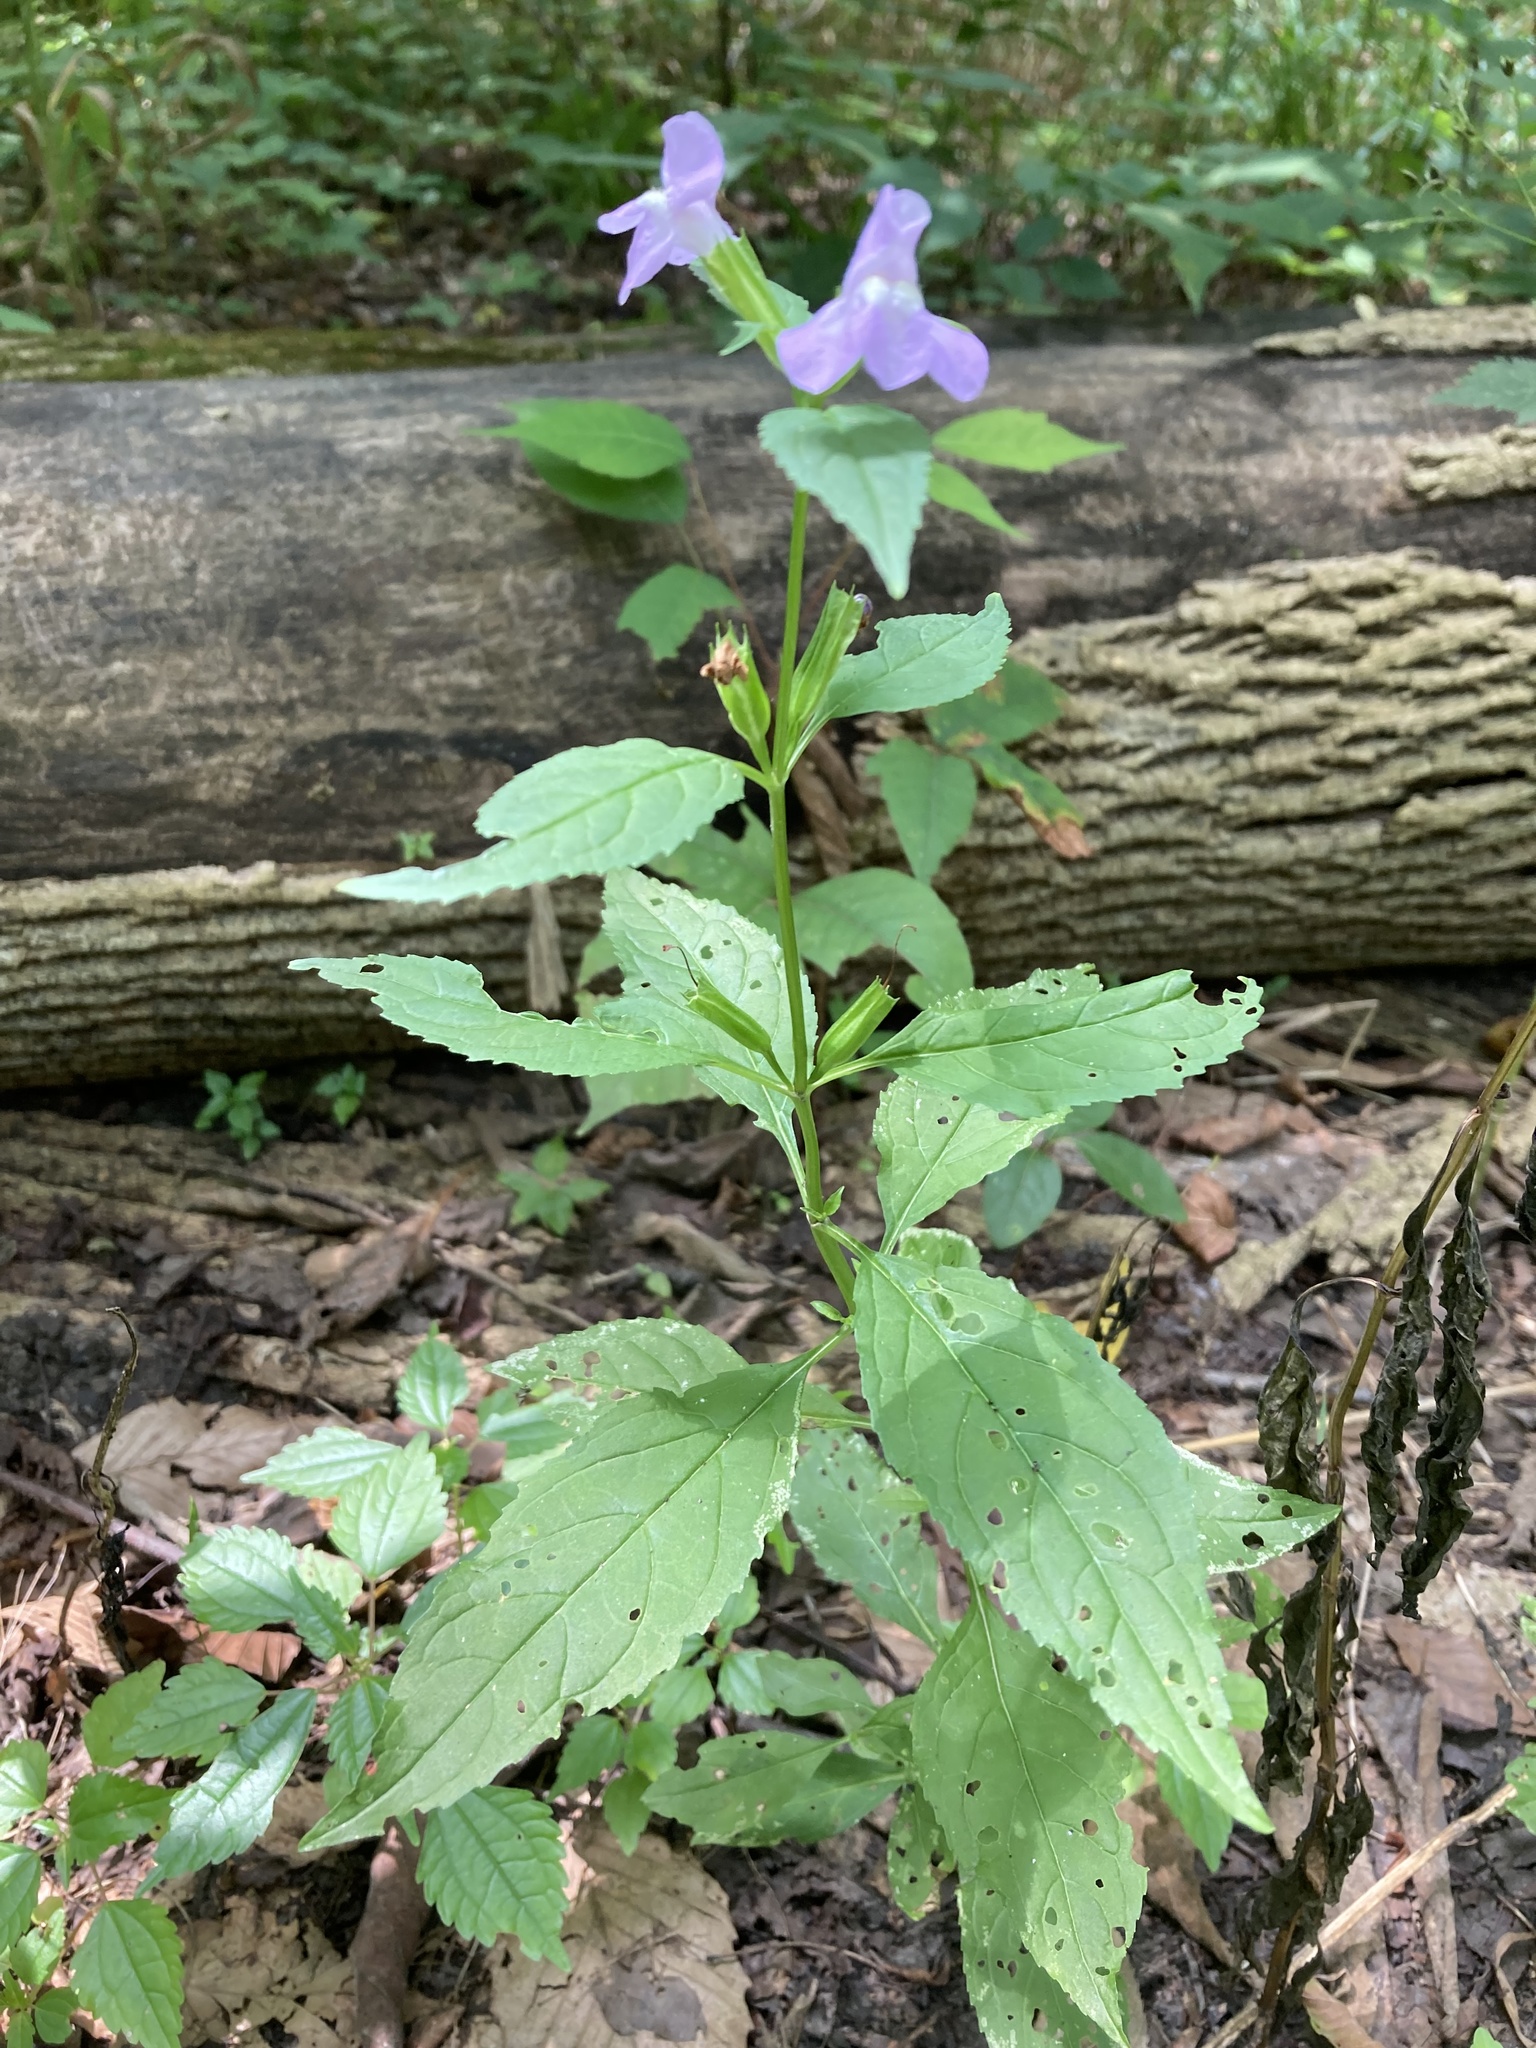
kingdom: Plantae
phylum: Tracheophyta
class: Magnoliopsida
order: Lamiales
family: Phrymaceae
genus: Mimulus
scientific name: Mimulus alatus
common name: Sharp-wing monkey-flower
